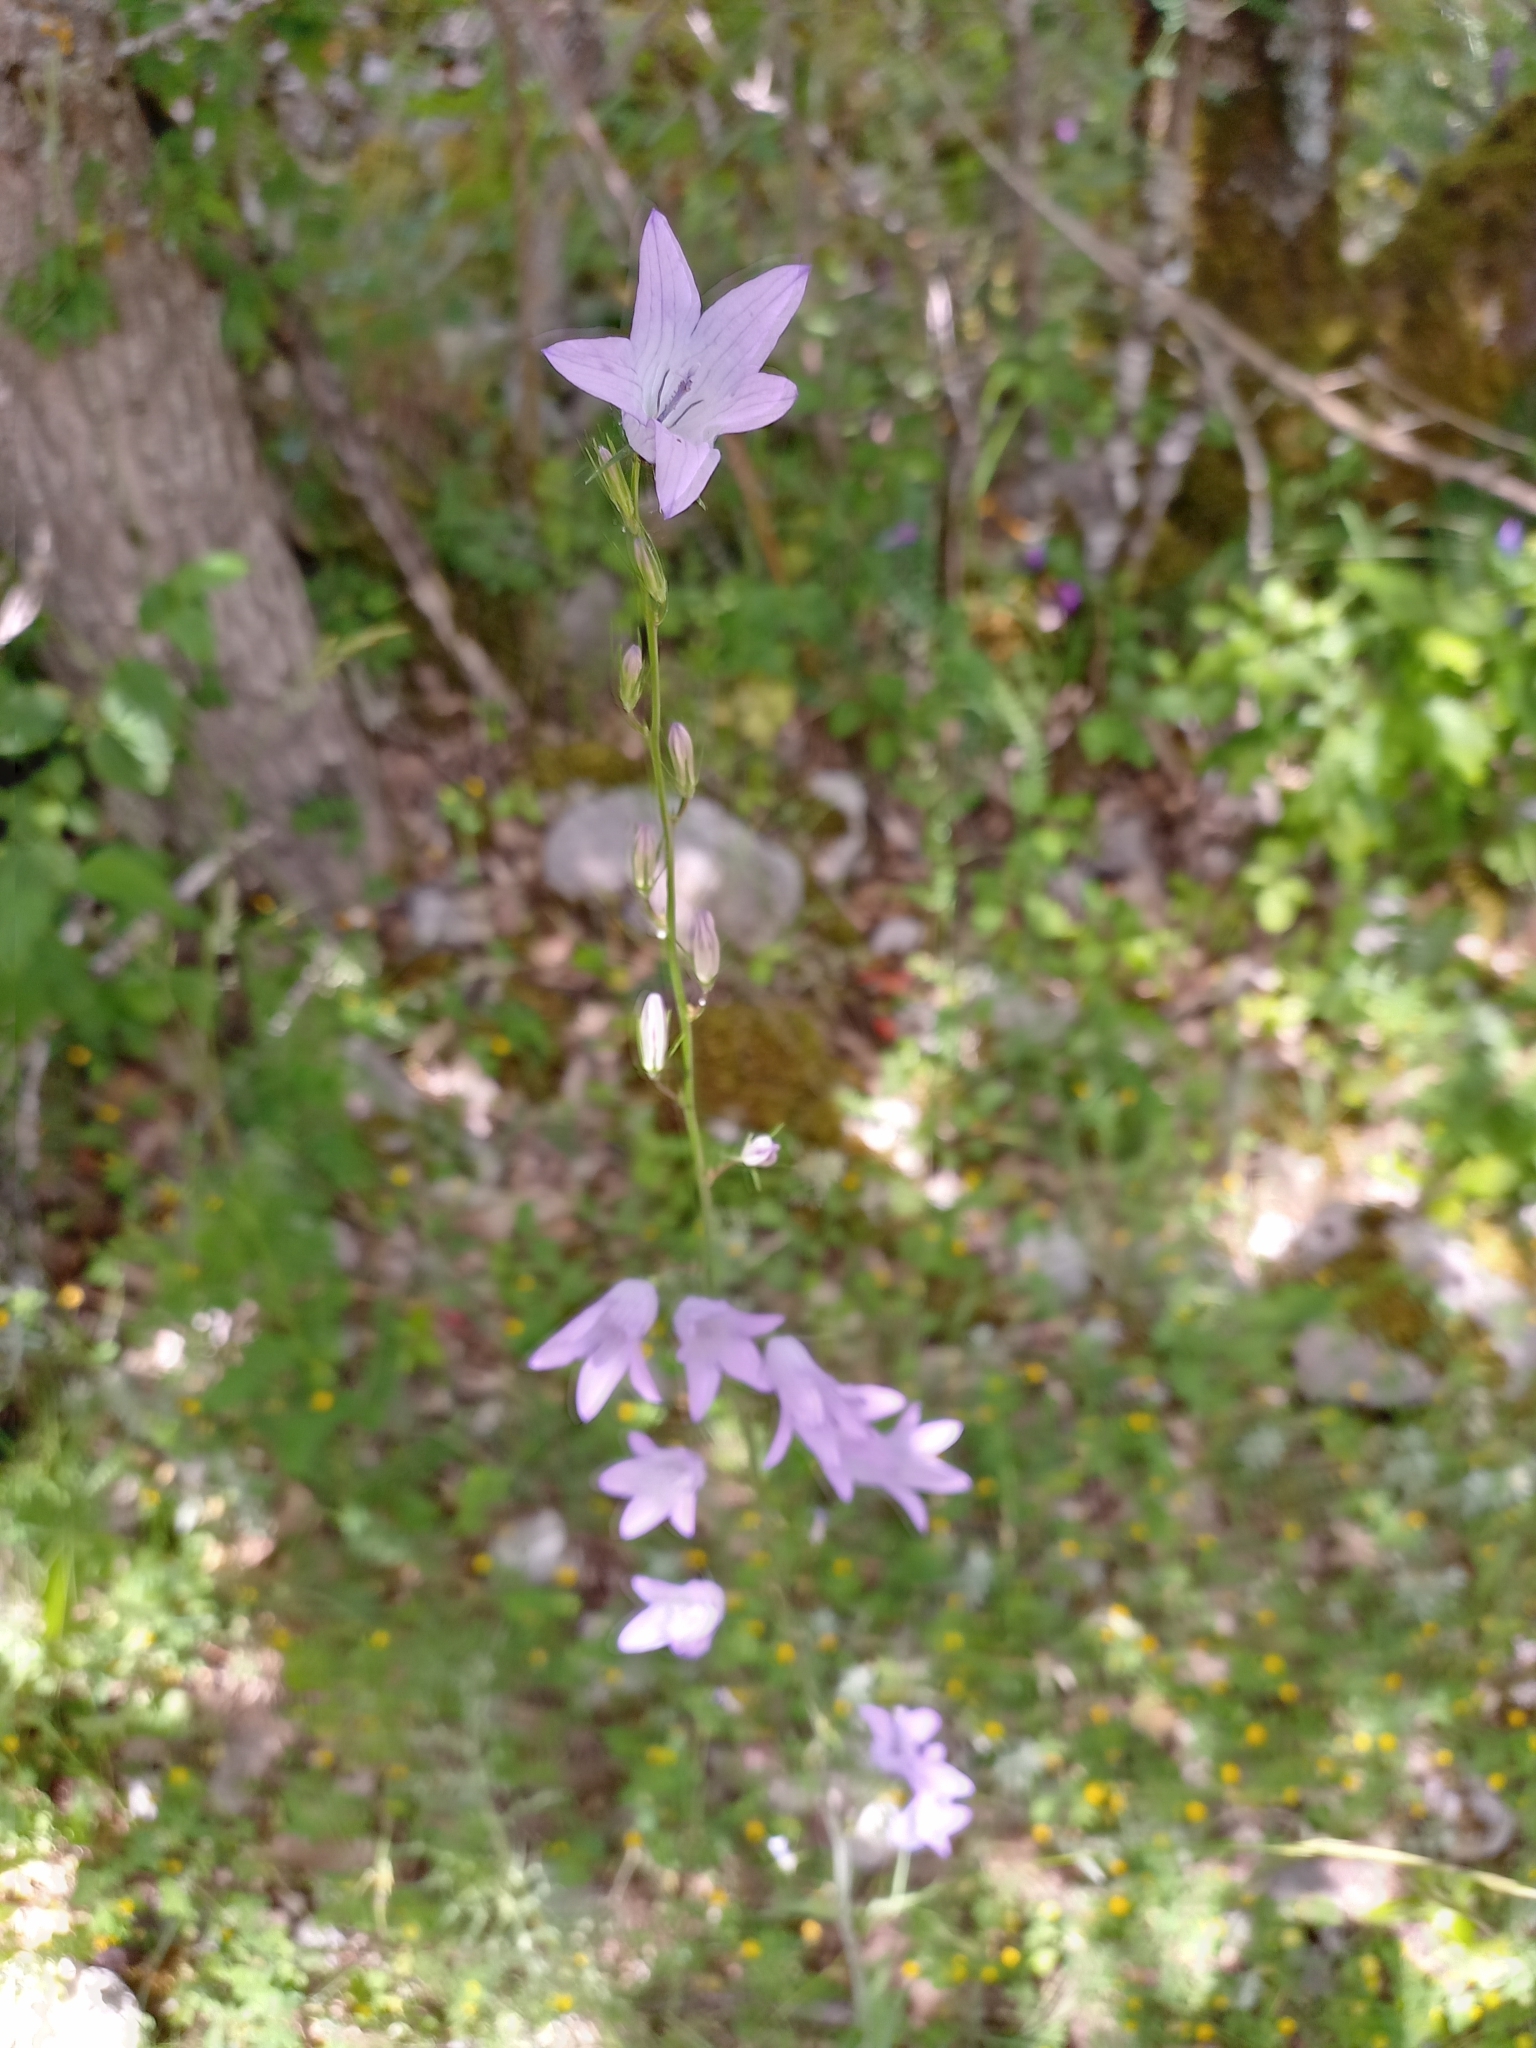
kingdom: Plantae
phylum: Tracheophyta
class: Magnoliopsida
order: Asterales
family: Campanulaceae
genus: Campanula
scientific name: Campanula rapunculus
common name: Rampion bellflower
